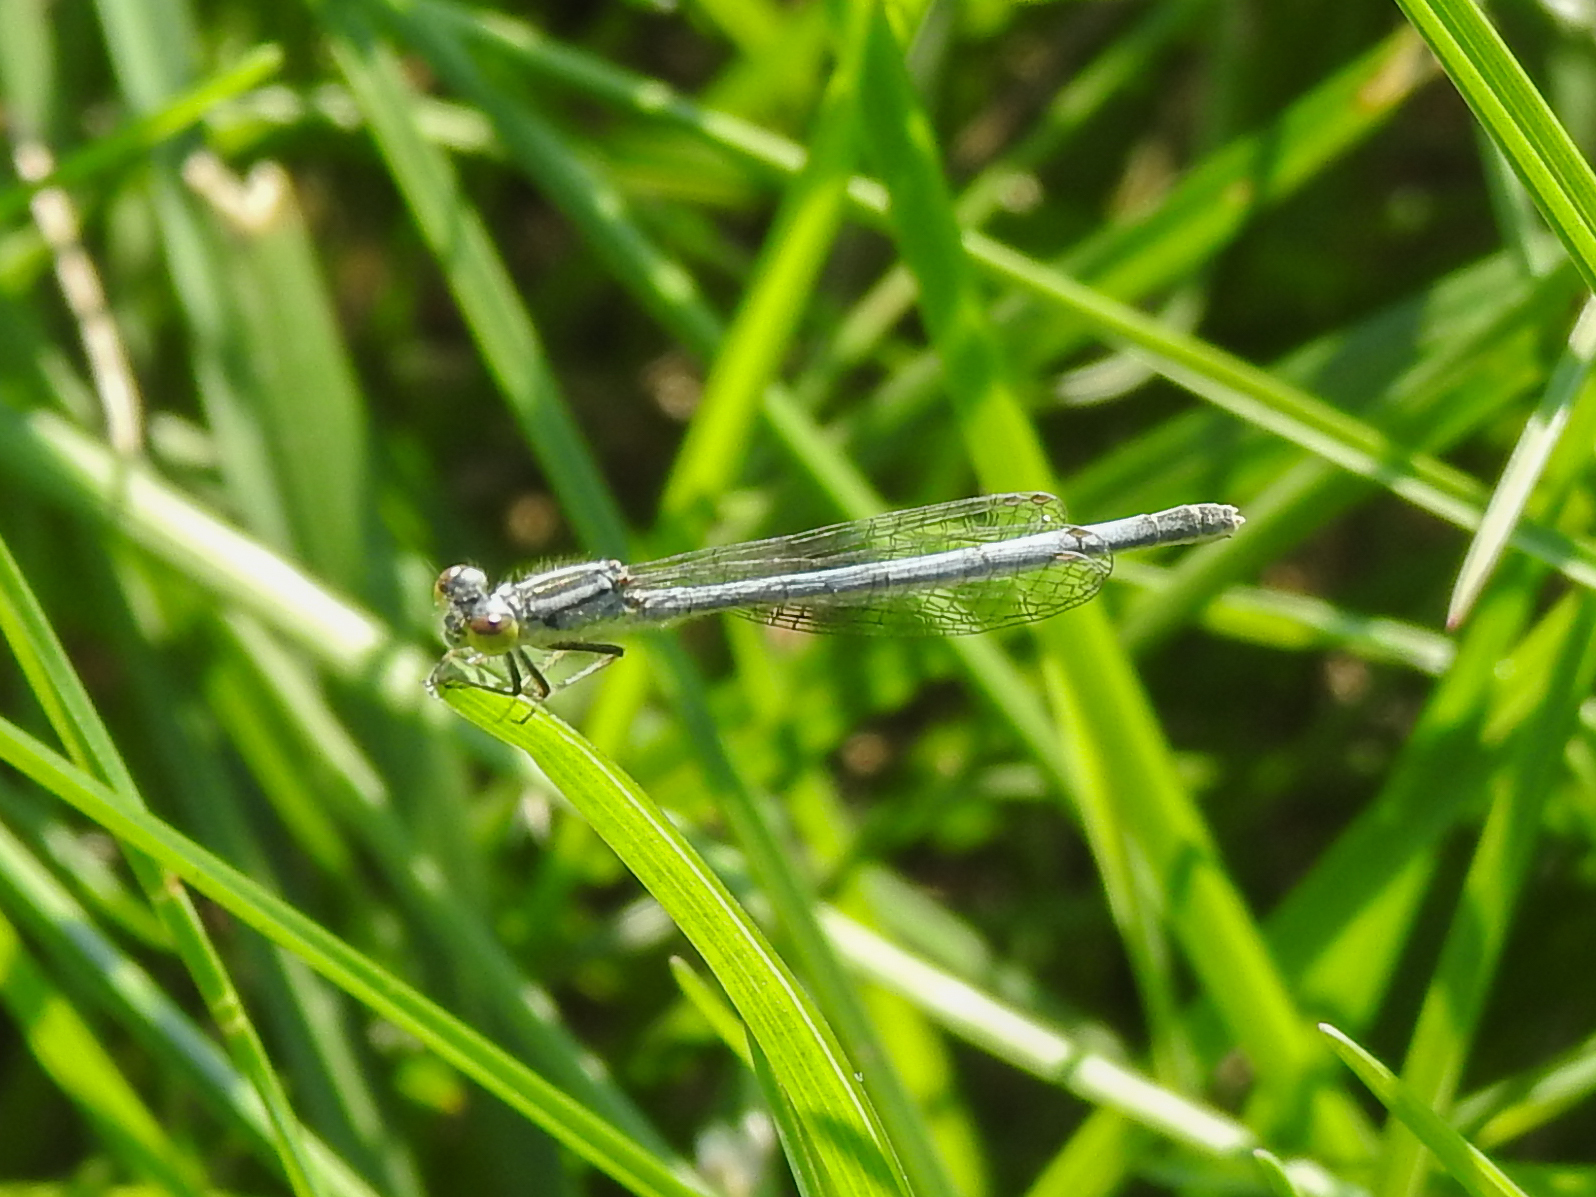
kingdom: Animalia
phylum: Arthropoda
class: Insecta
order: Odonata
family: Coenagrionidae
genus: Ischnura
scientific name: Ischnura verticalis
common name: Eastern forktail
